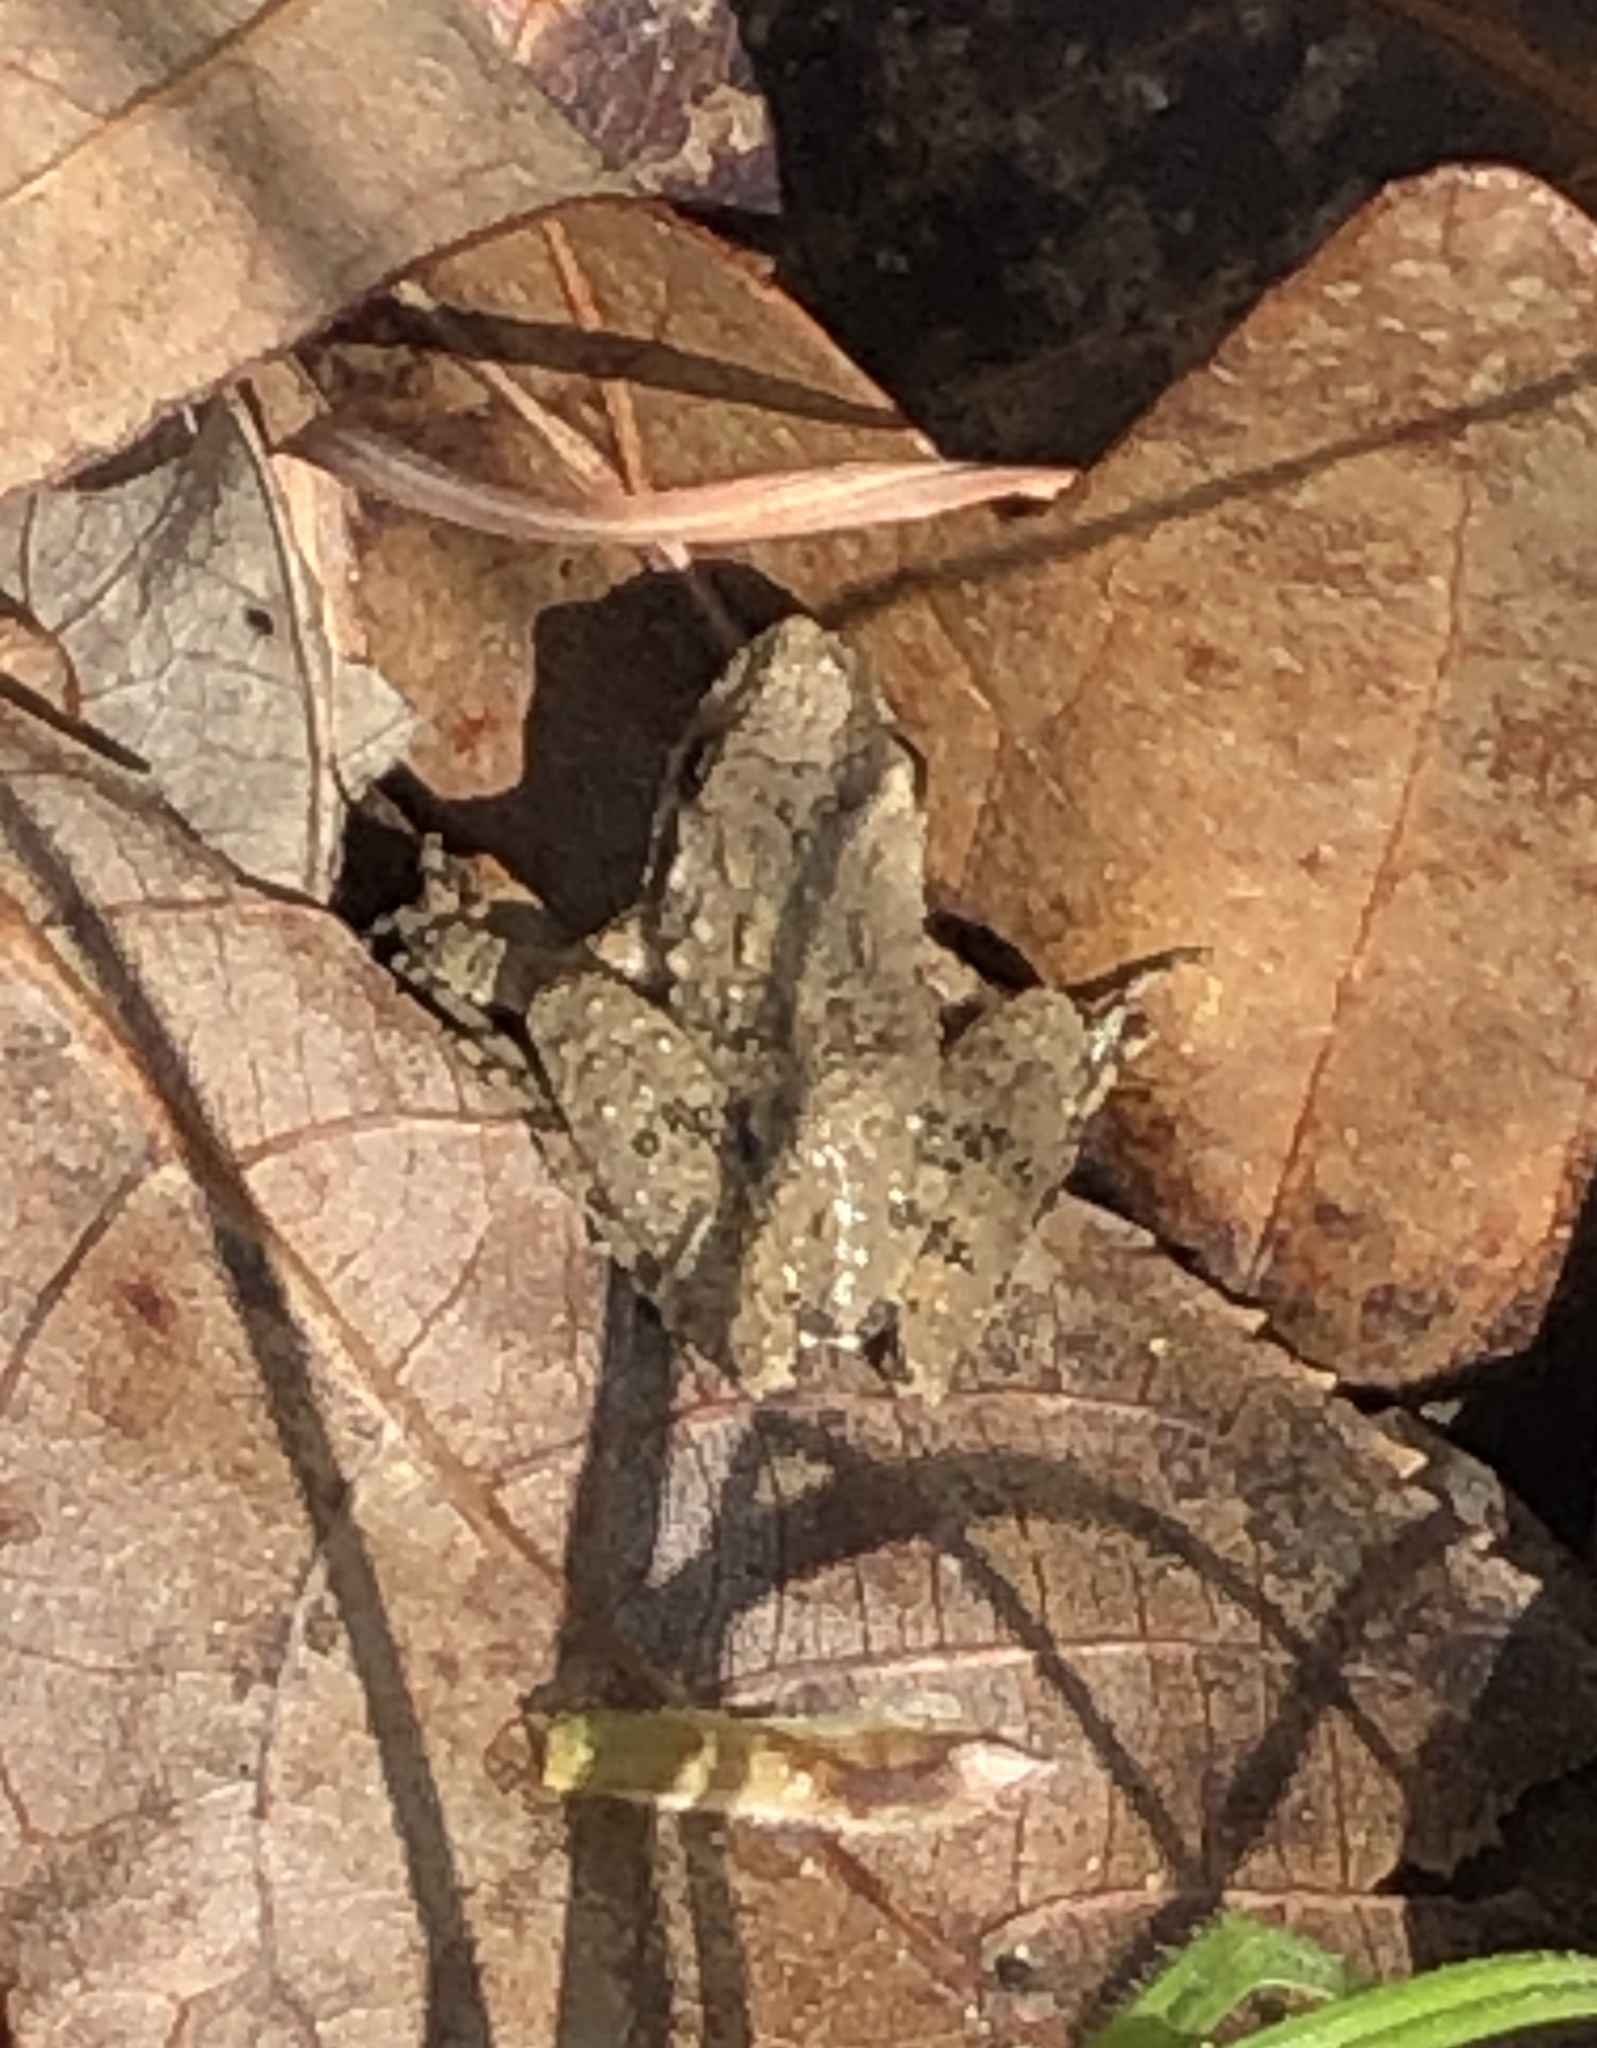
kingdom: Animalia
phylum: Chordata
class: Amphibia
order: Anura
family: Hylidae
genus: Acris
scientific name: Acris blanchardi
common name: Blanchard's cricket frog
